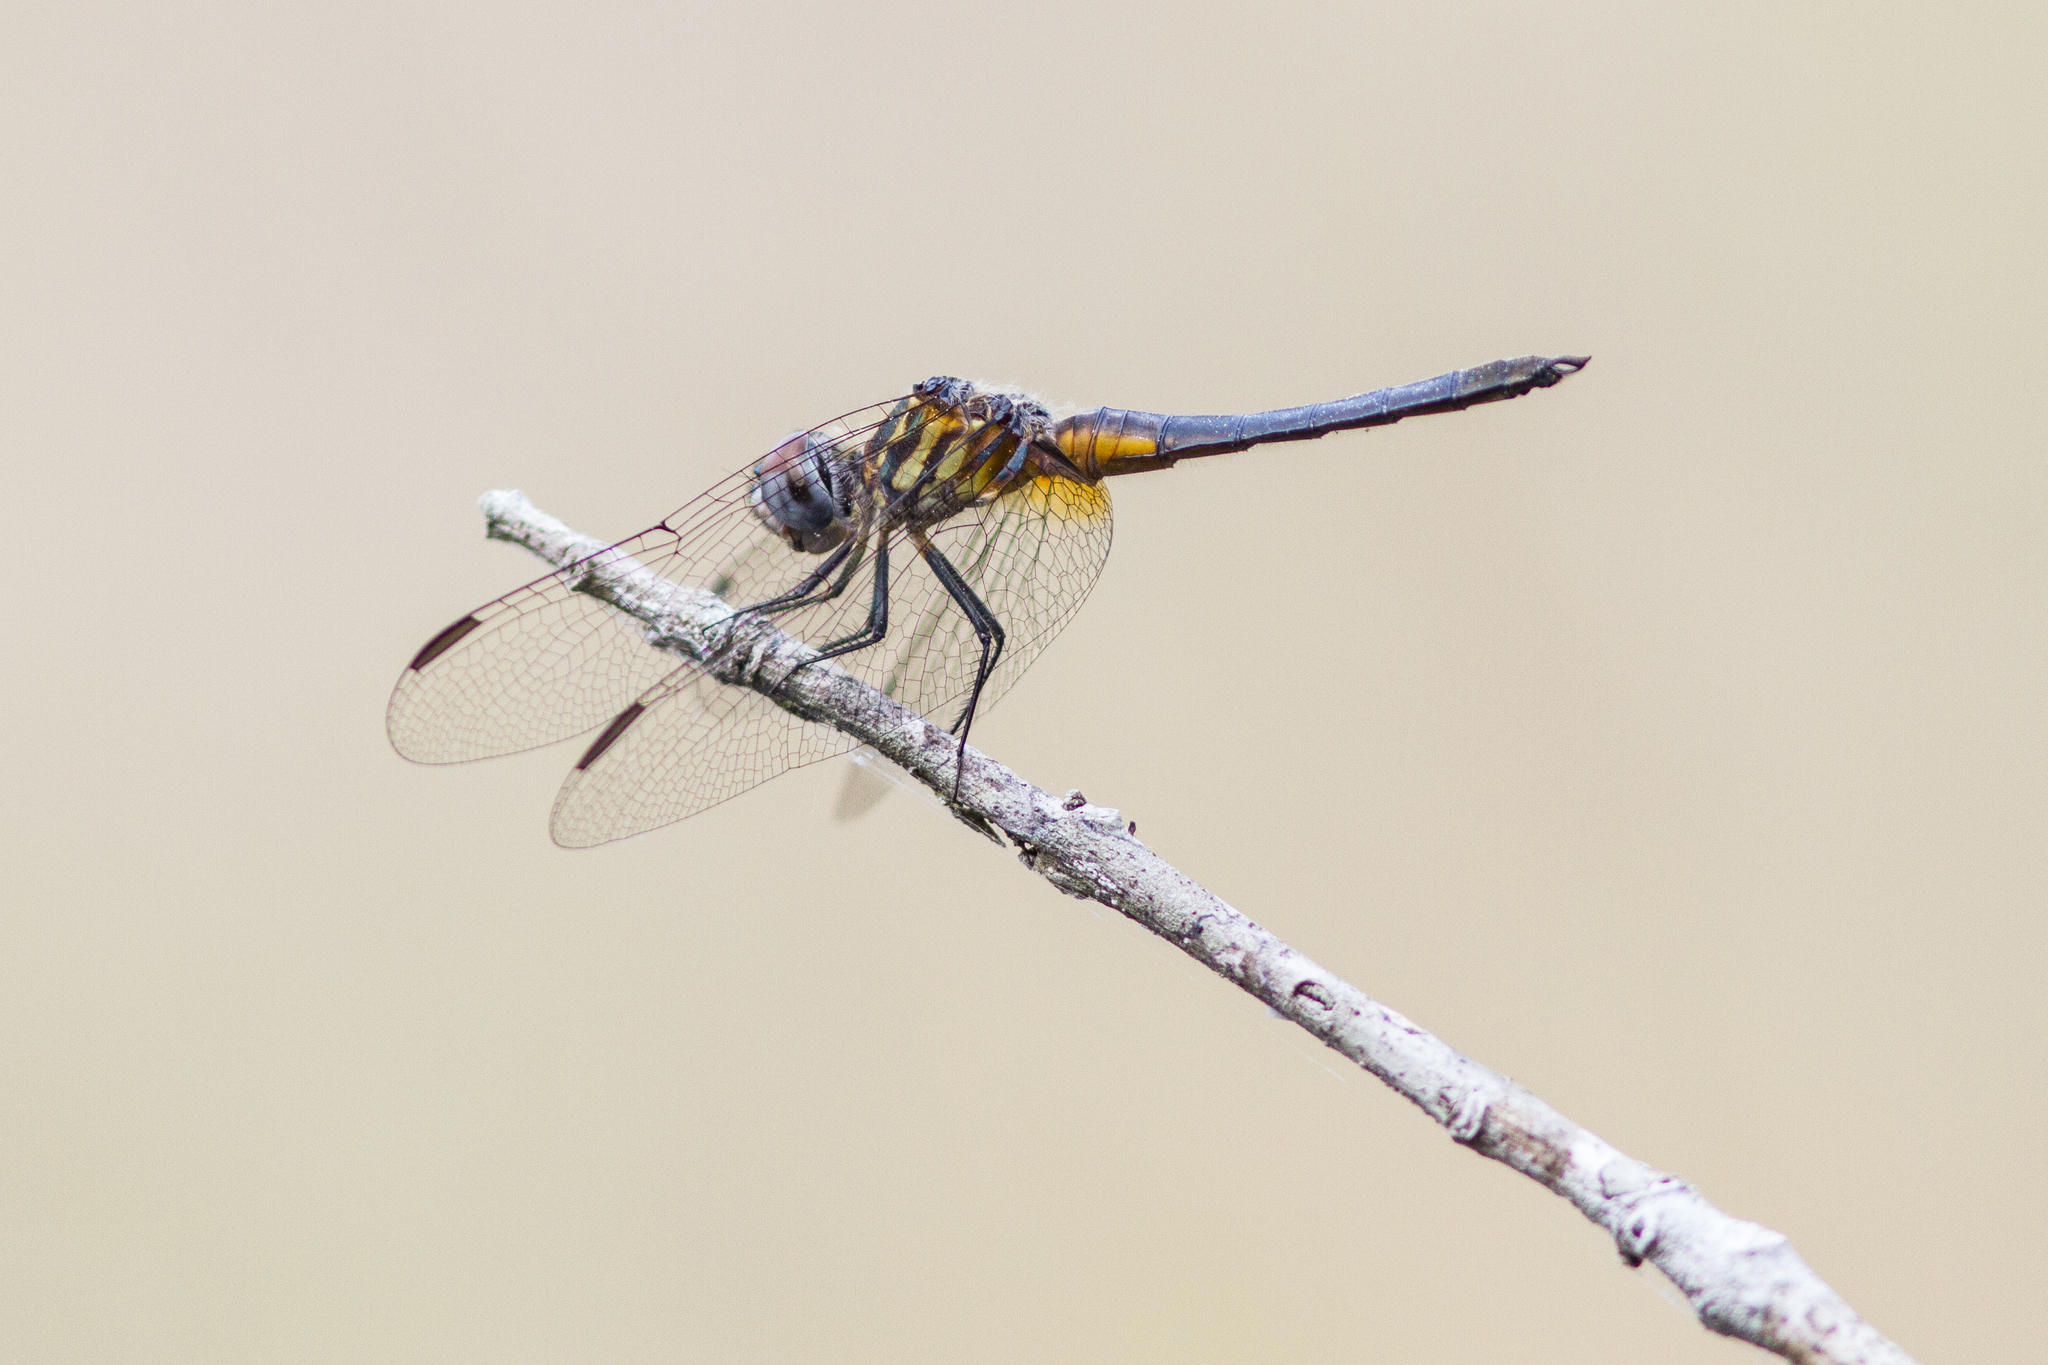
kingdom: Animalia
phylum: Arthropoda
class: Insecta
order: Odonata
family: Libellulidae
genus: Pachydiplax
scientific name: Pachydiplax longipennis
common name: Blue dasher
